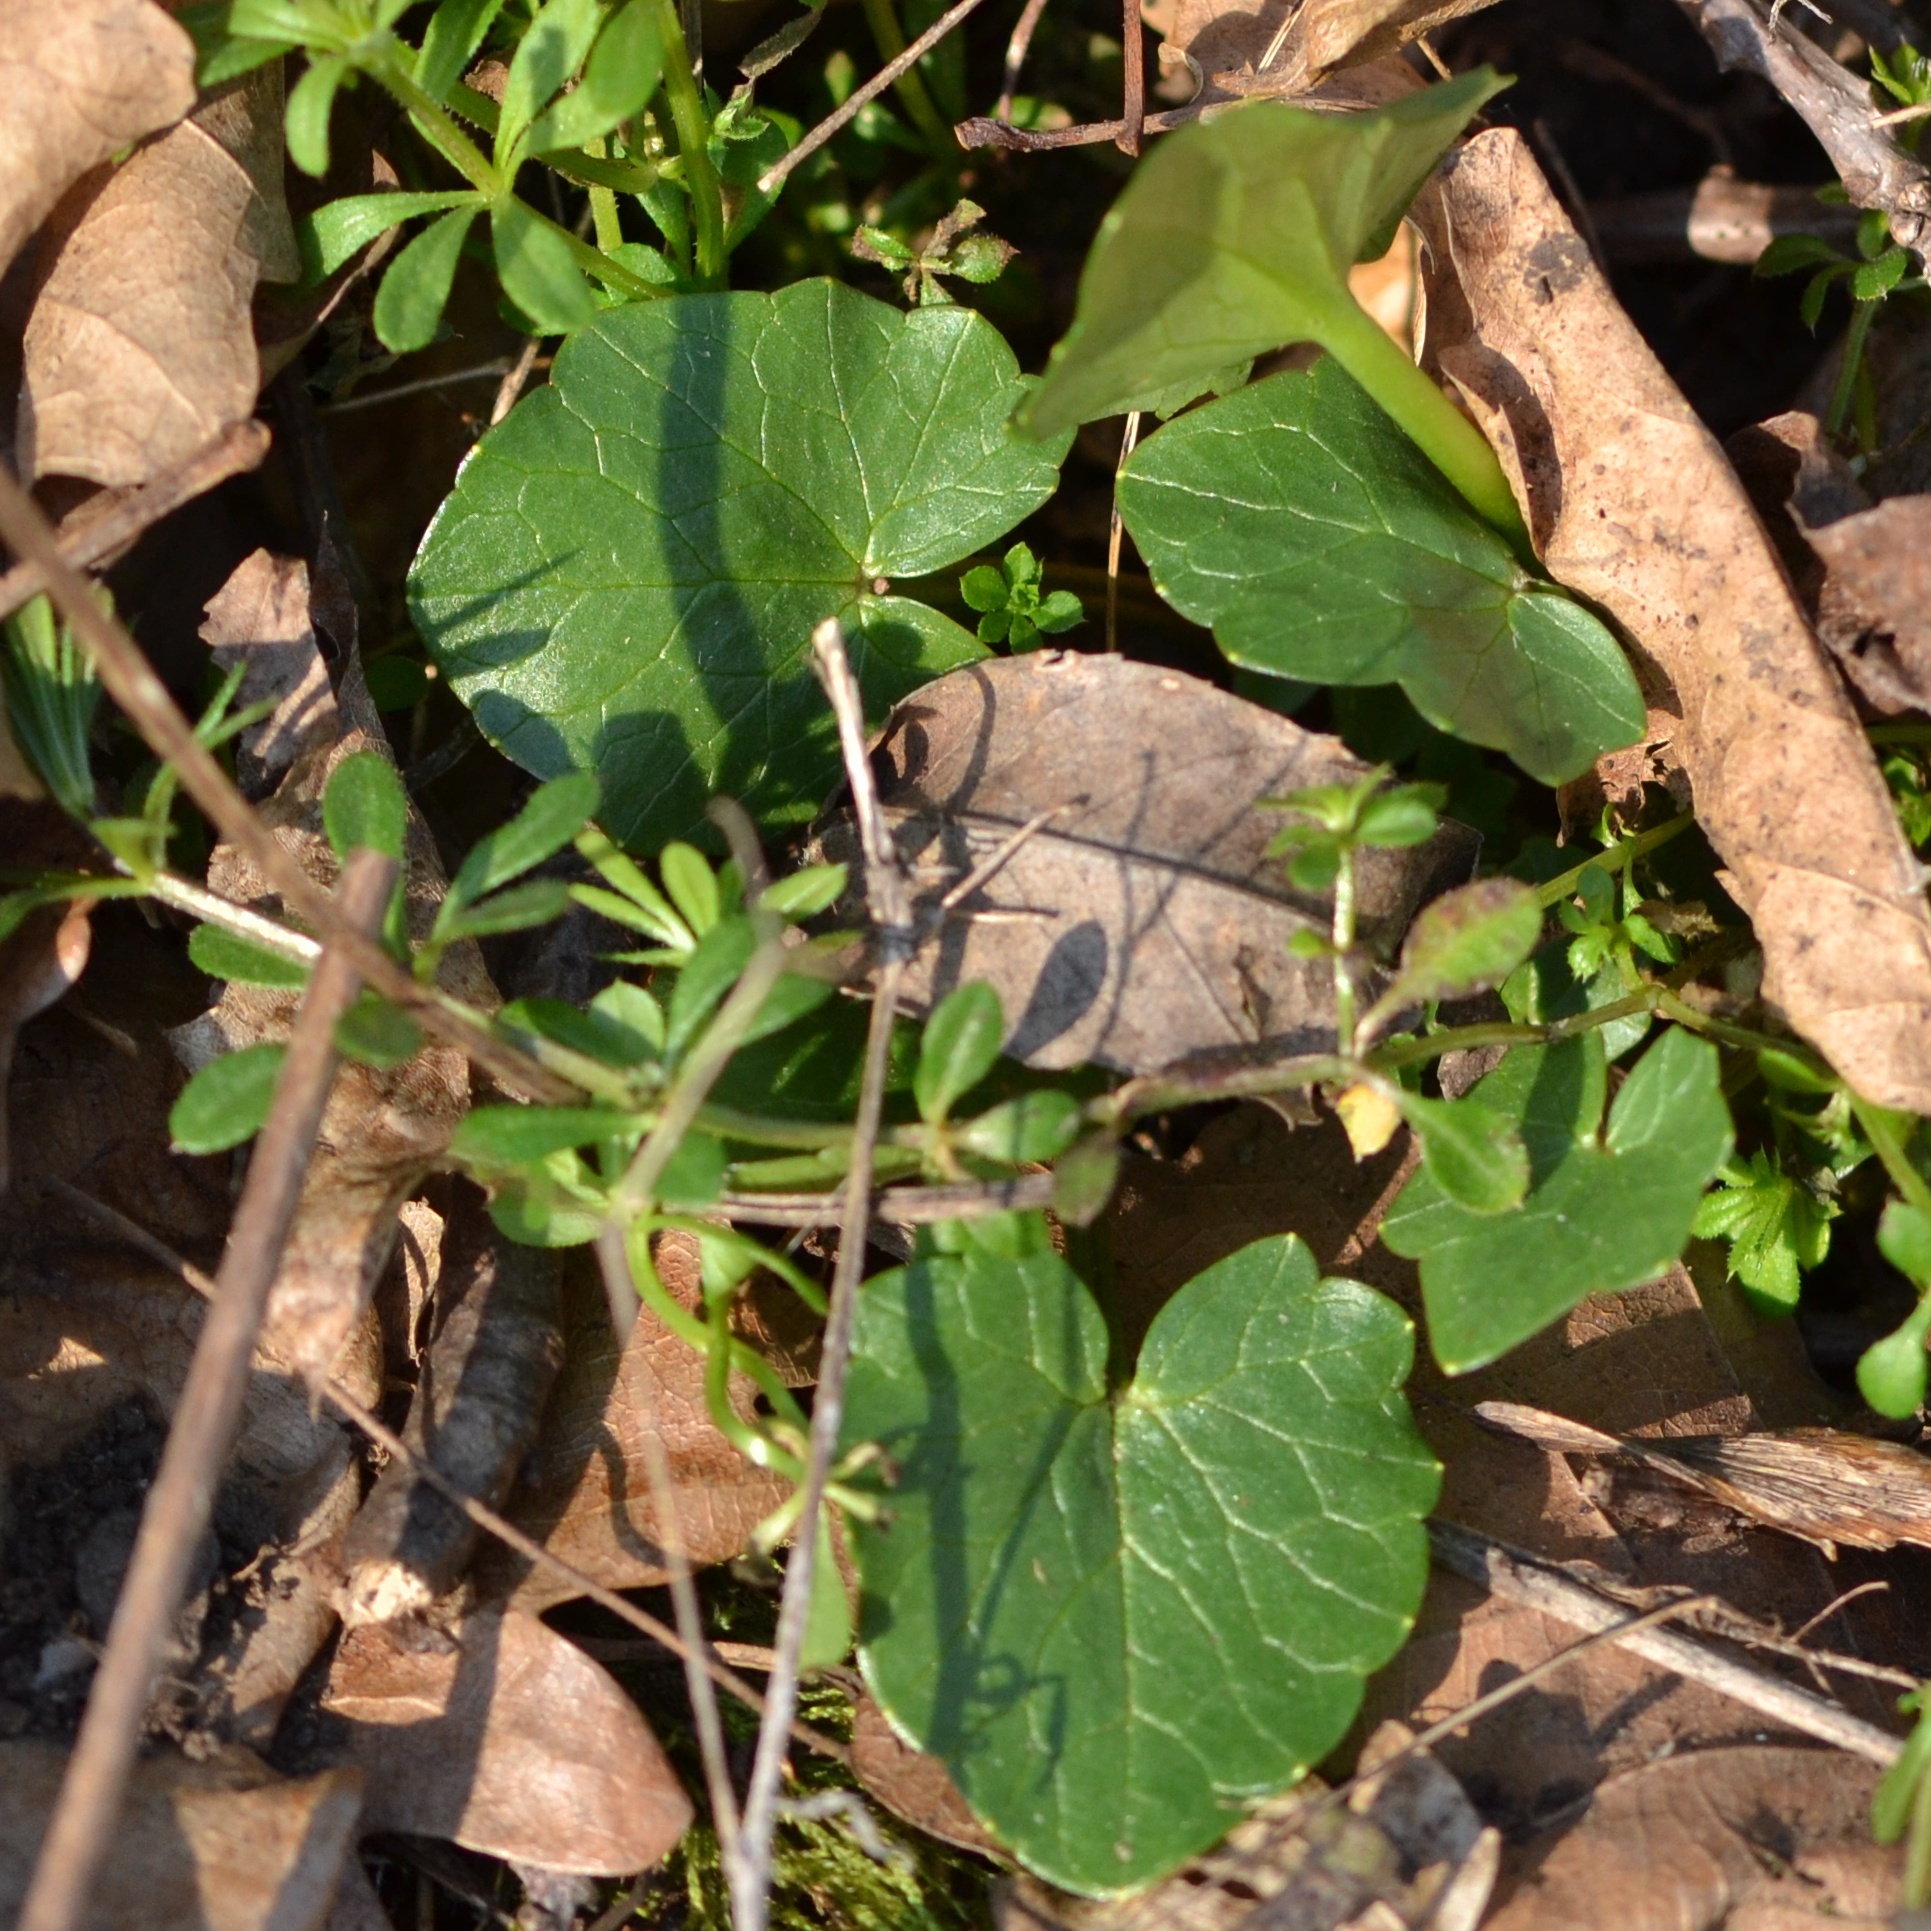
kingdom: Plantae
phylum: Tracheophyta
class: Magnoliopsida
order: Ranunculales
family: Ranunculaceae
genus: Ficaria
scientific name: Ficaria verna
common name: Lesser celandine
